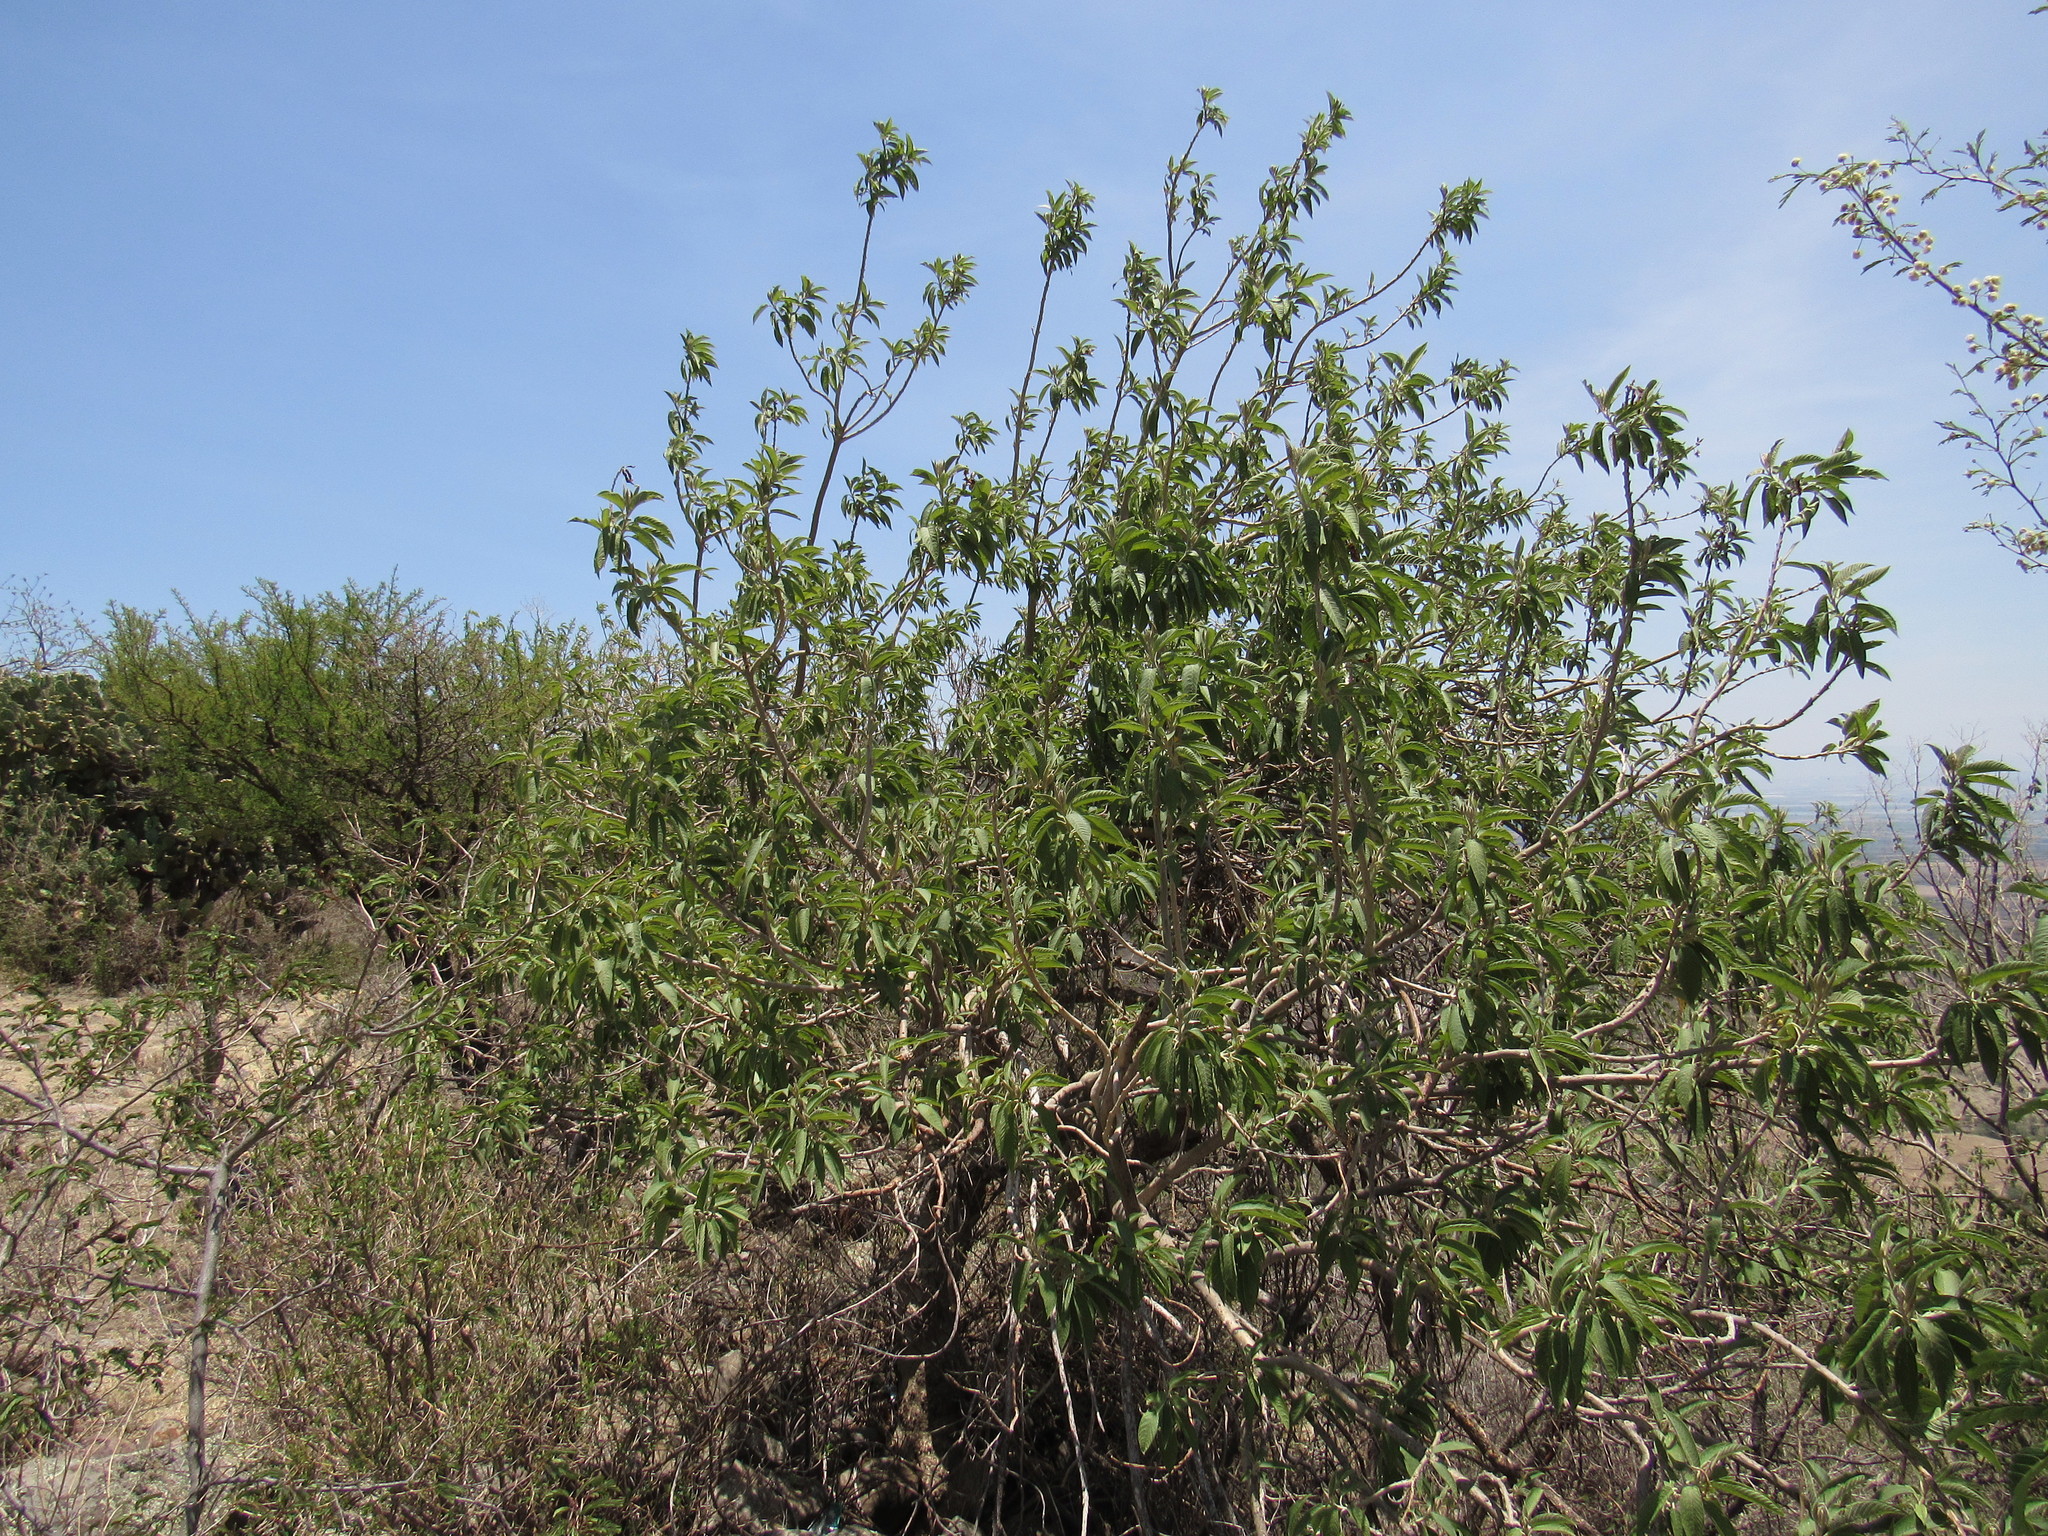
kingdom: Plantae
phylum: Tracheophyta
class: Magnoliopsida
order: Solanales
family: Convolvulaceae
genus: Ipomoea
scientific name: Ipomoea murucoides
